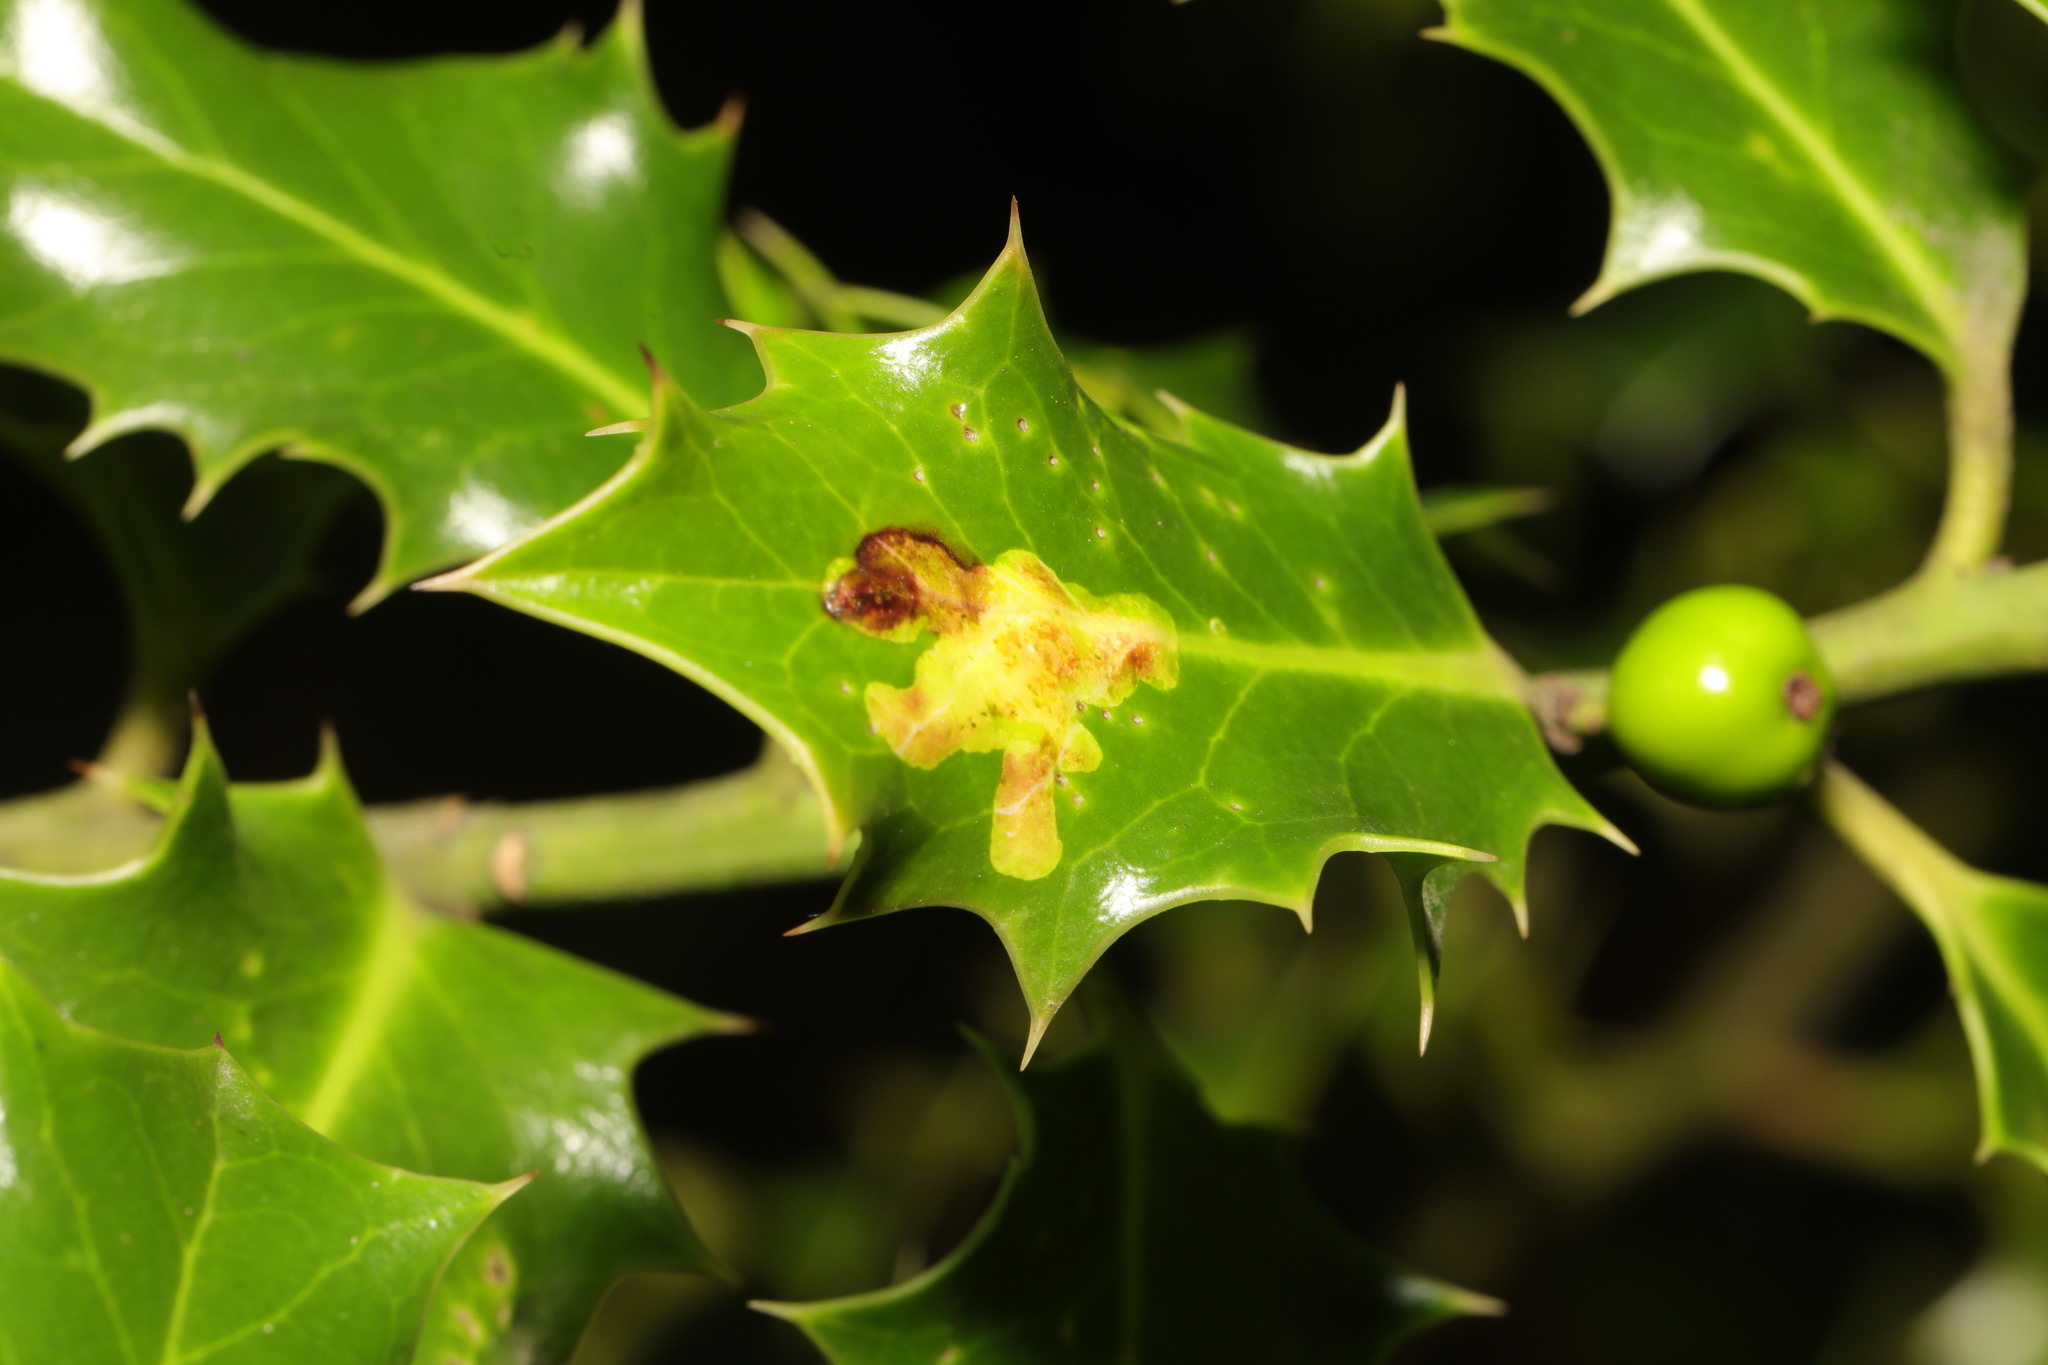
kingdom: Animalia
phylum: Arthropoda
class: Insecta
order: Diptera
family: Agromyzidae
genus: Phytomyza
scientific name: Phytomyza ilicis
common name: Holly leafminer
